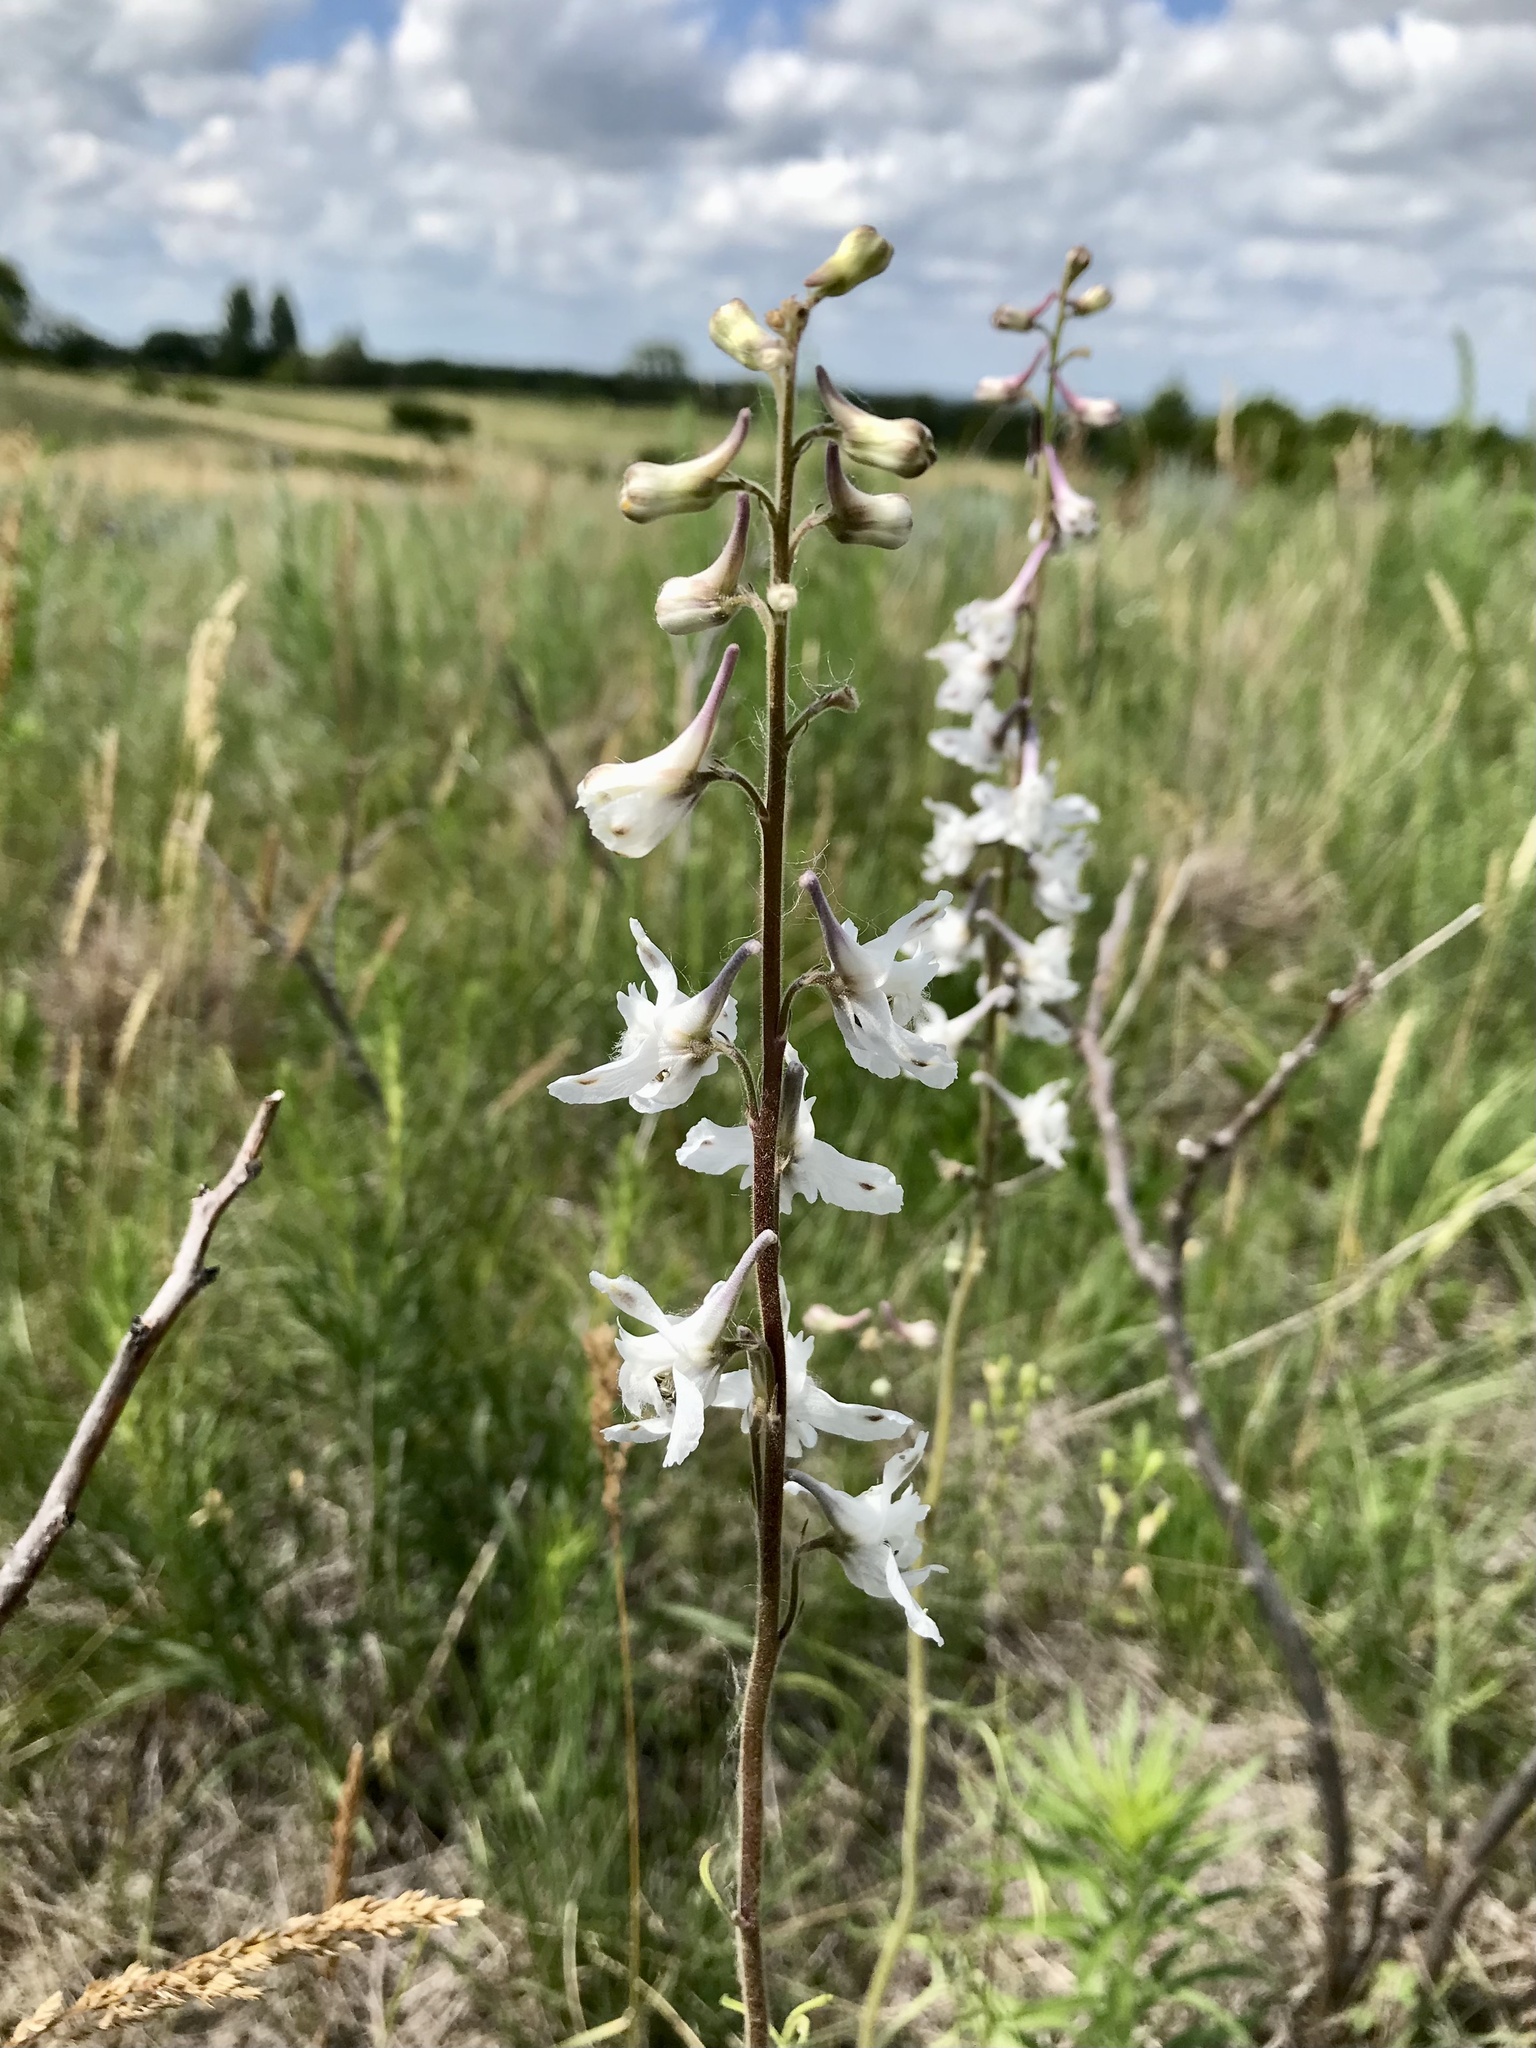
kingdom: Plantae
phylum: Tracheophyta
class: Magnoliopsida
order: Ranunculales
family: Ranunculaceae
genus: Delphinium
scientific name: Delphinium carolinianum
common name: Carolina larkspur
